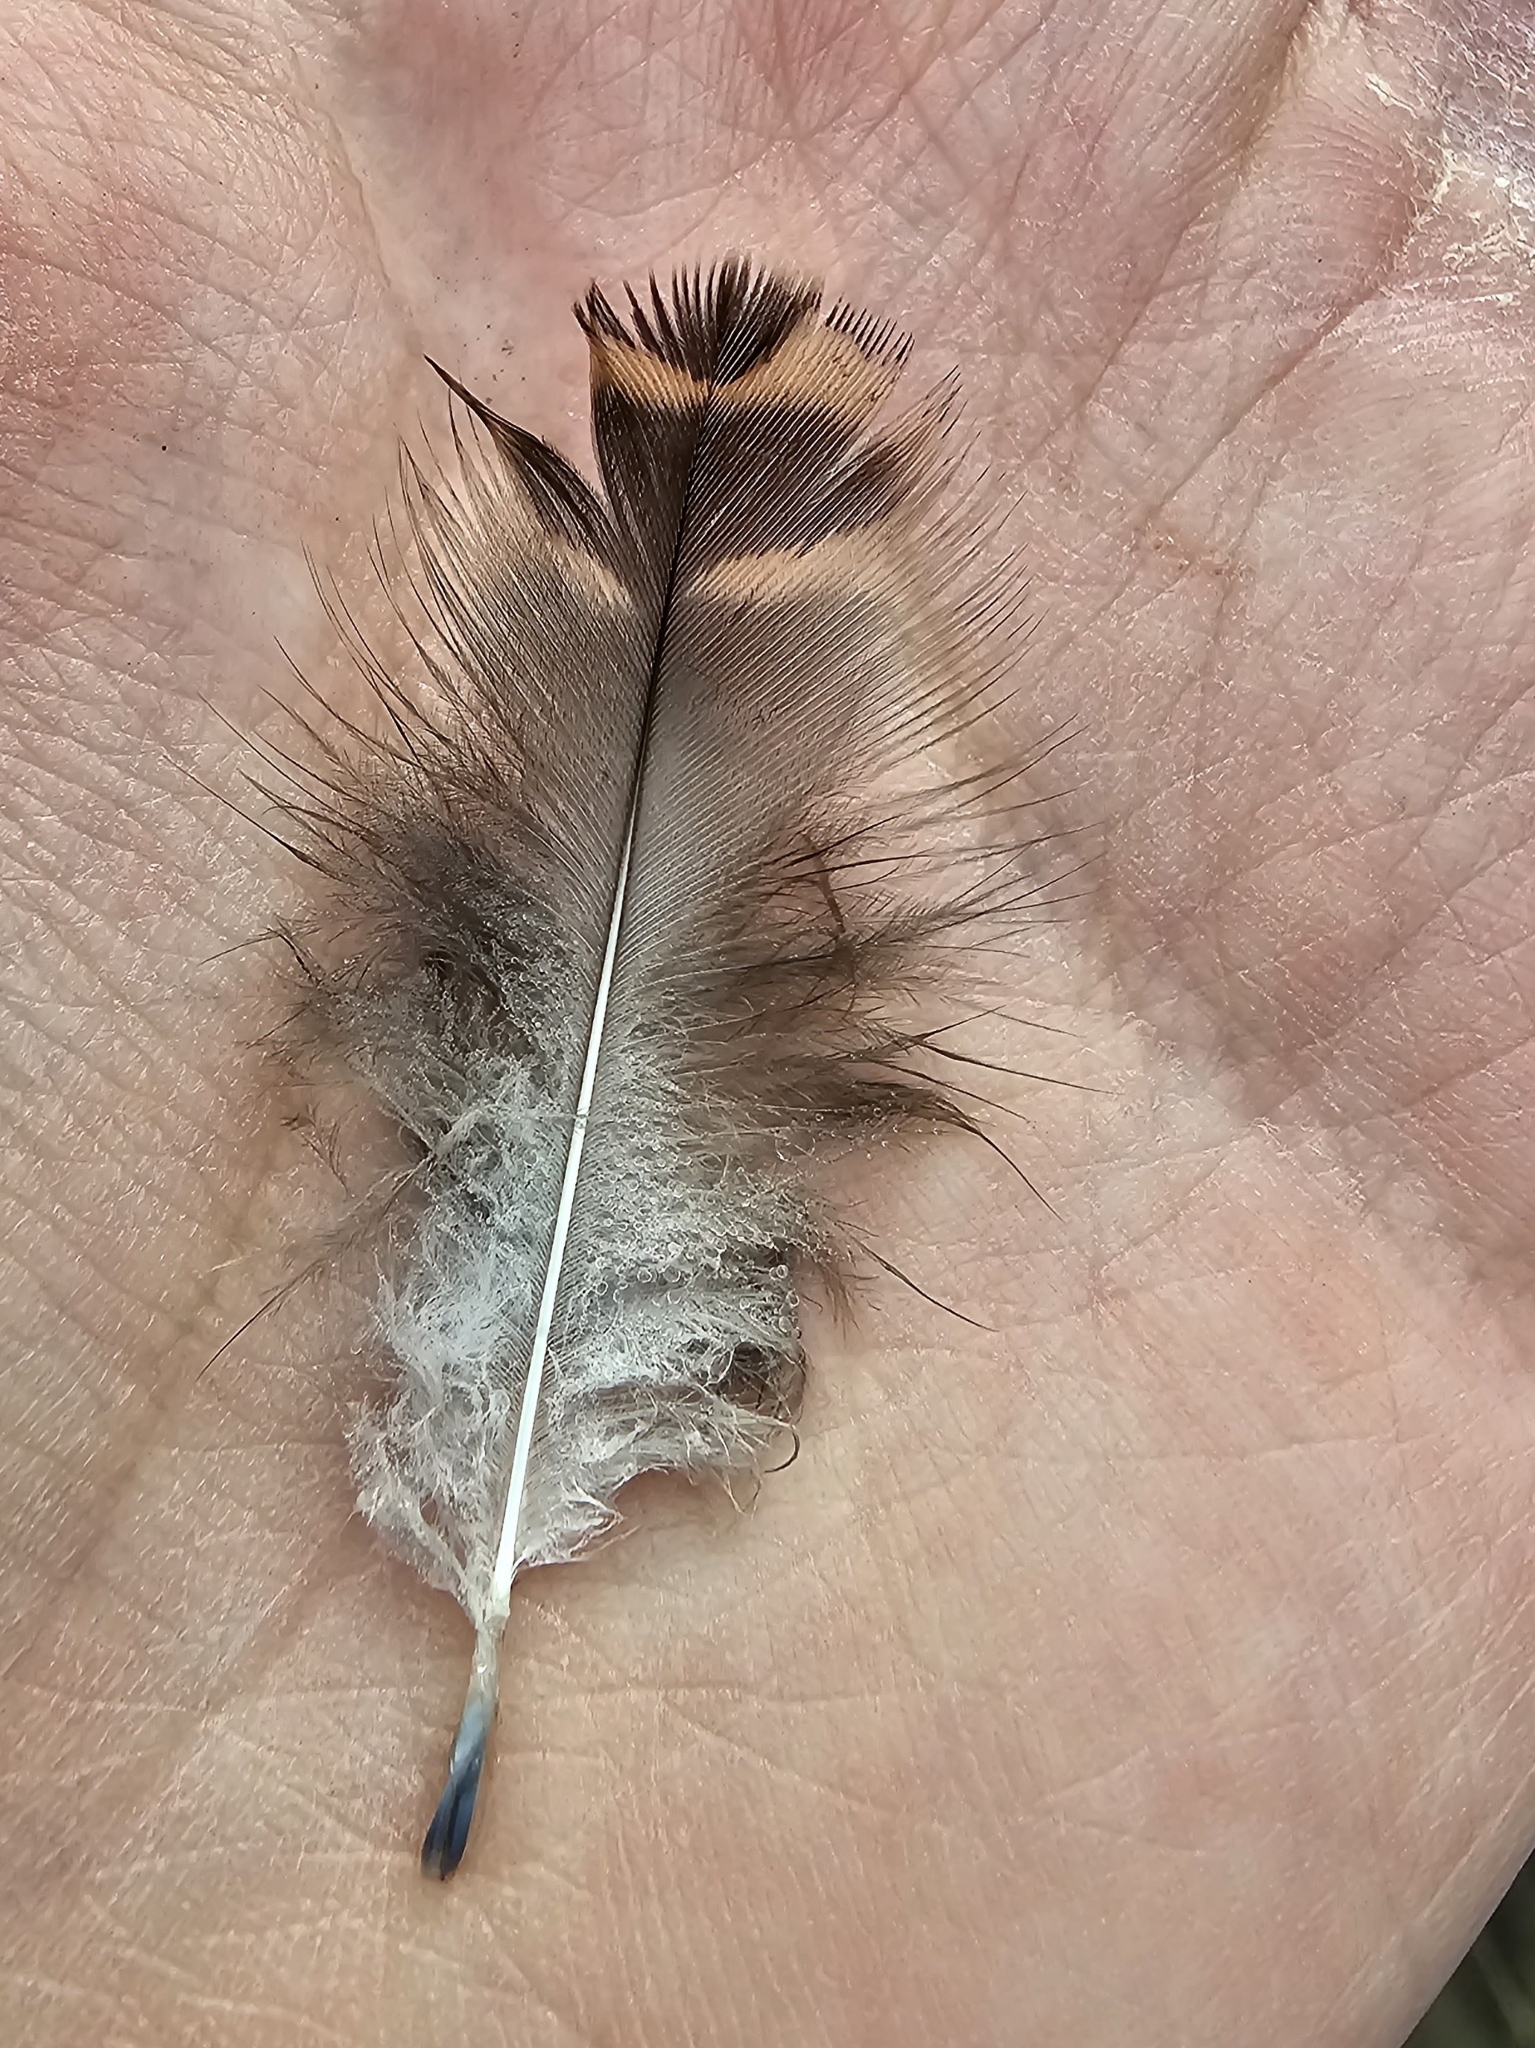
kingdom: Animalia
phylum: Chordata
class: Aves
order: Anseriformes
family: Anatidae
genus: Anas
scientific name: Anas platyrhynchos
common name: Mallard
